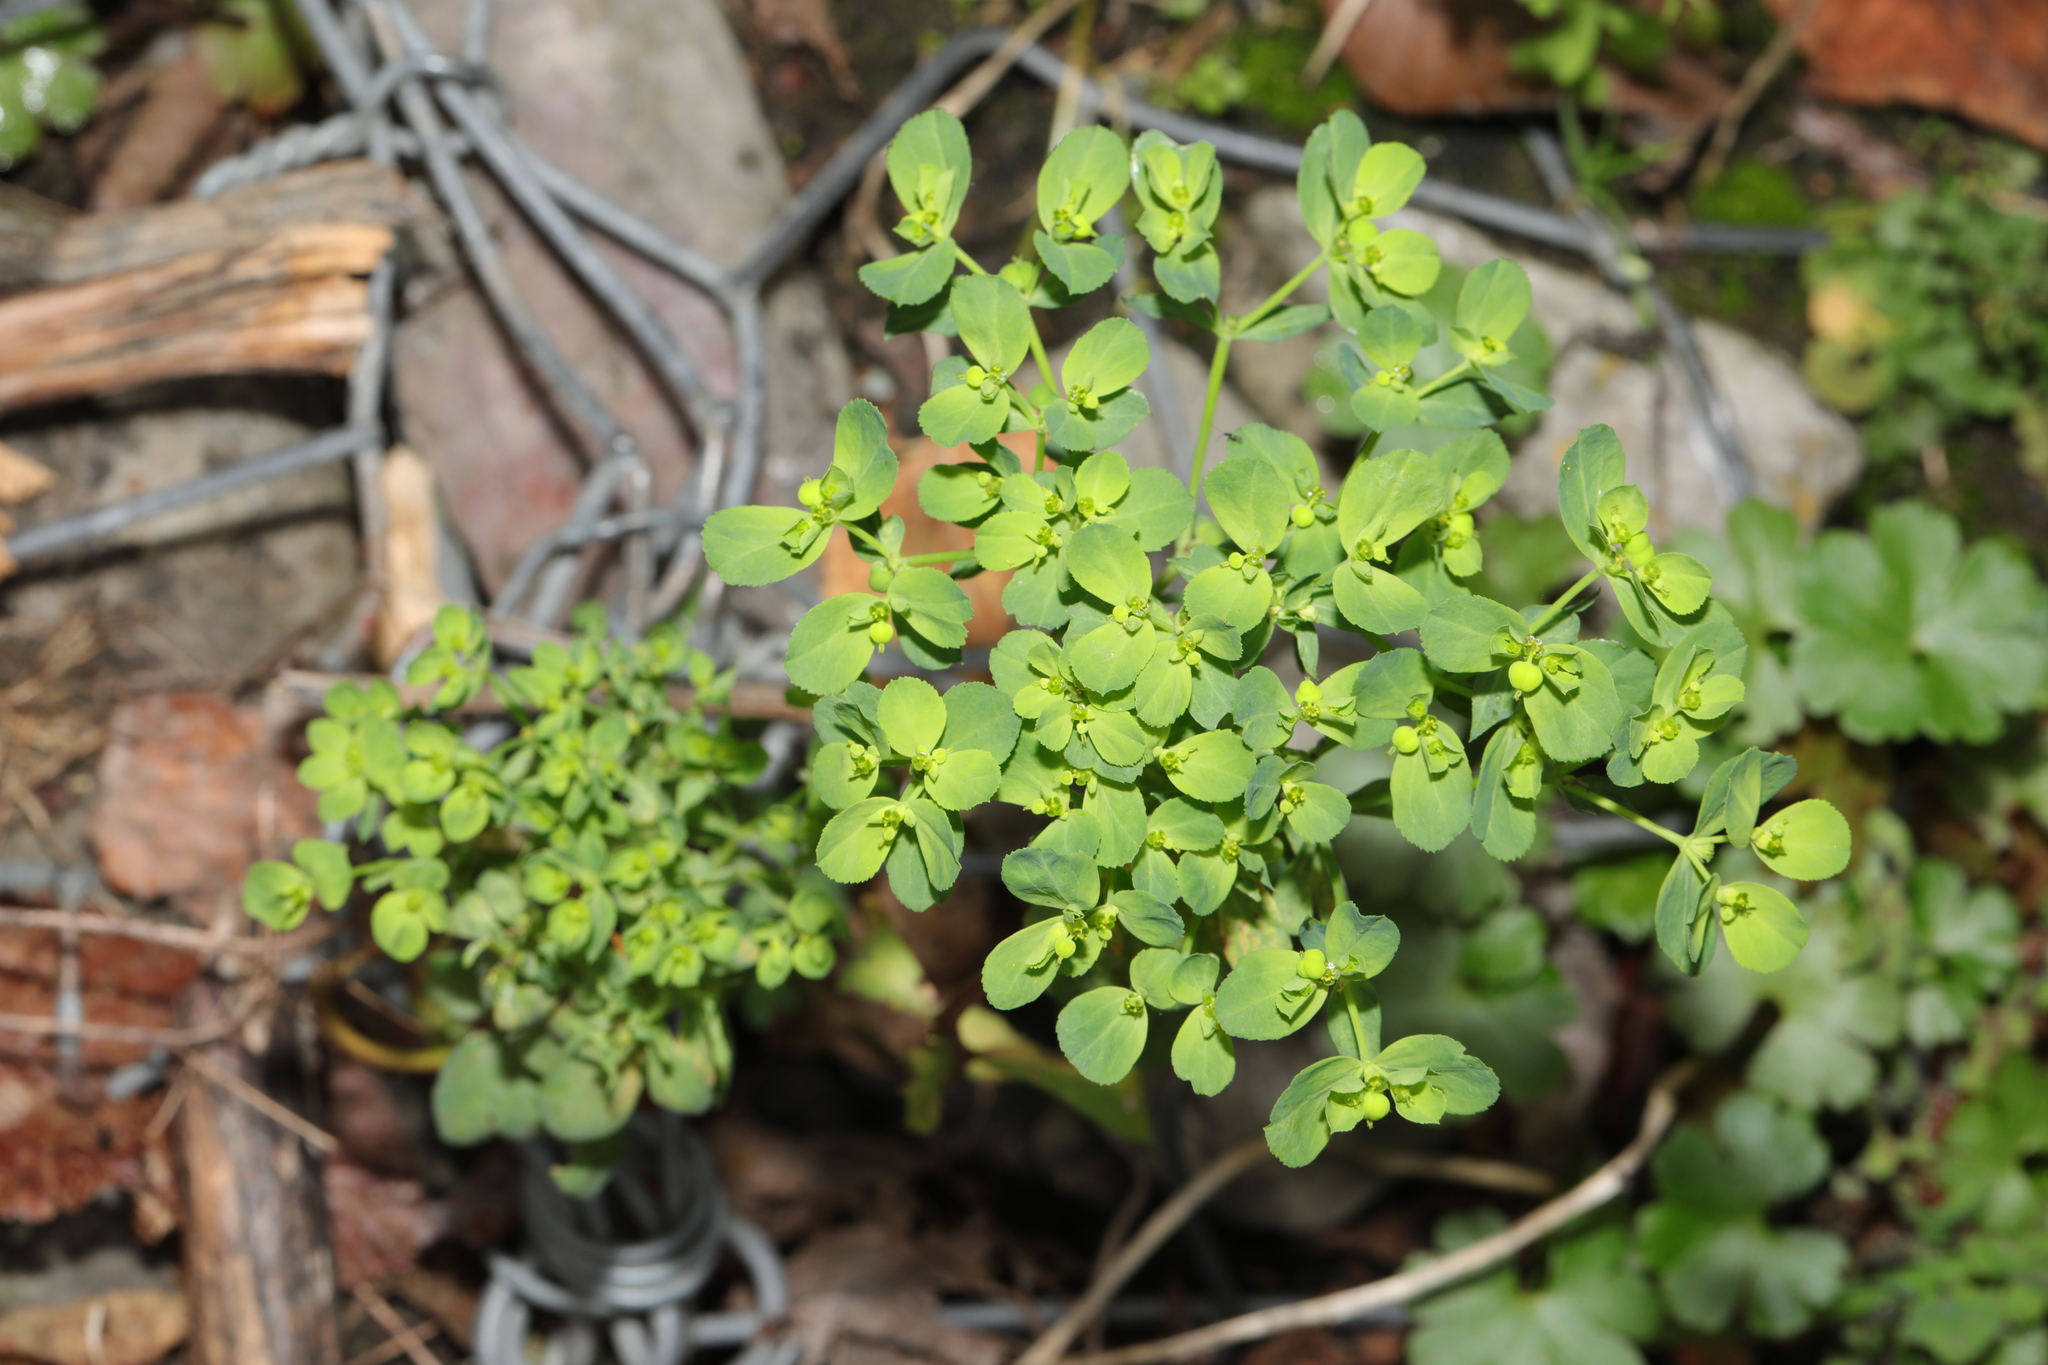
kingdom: Plantae
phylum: Tracheophyta
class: Magnoliopsida
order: Malpighiales
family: Euphorbiaceae
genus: Euphorbia
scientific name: Euphorbia helioscopia
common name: Sun spurge
